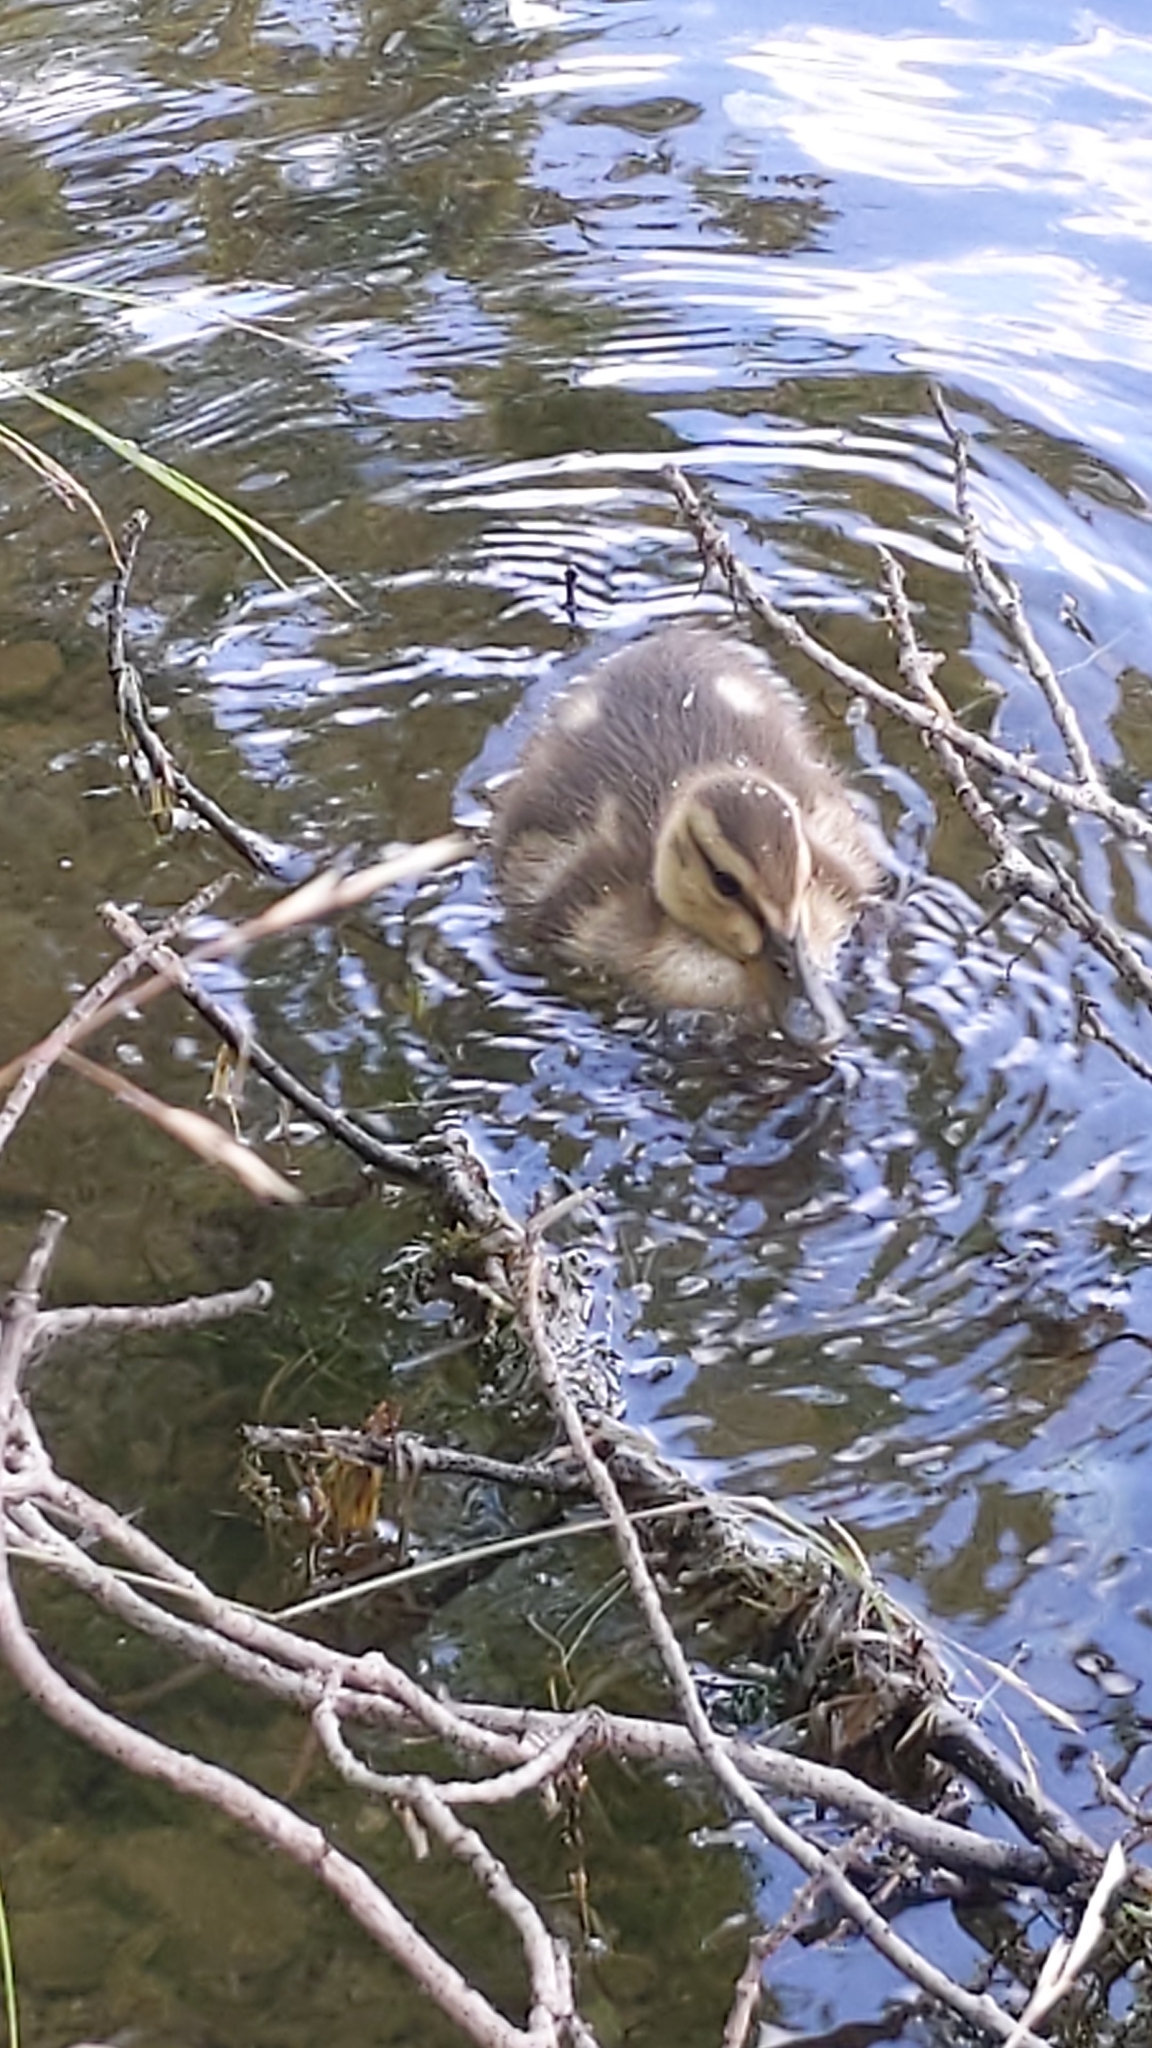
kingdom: Animalia
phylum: Chordata
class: Aves
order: Anseriformes
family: Anatidae
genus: Anas
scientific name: Anas platyrhynchos
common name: Mallard
